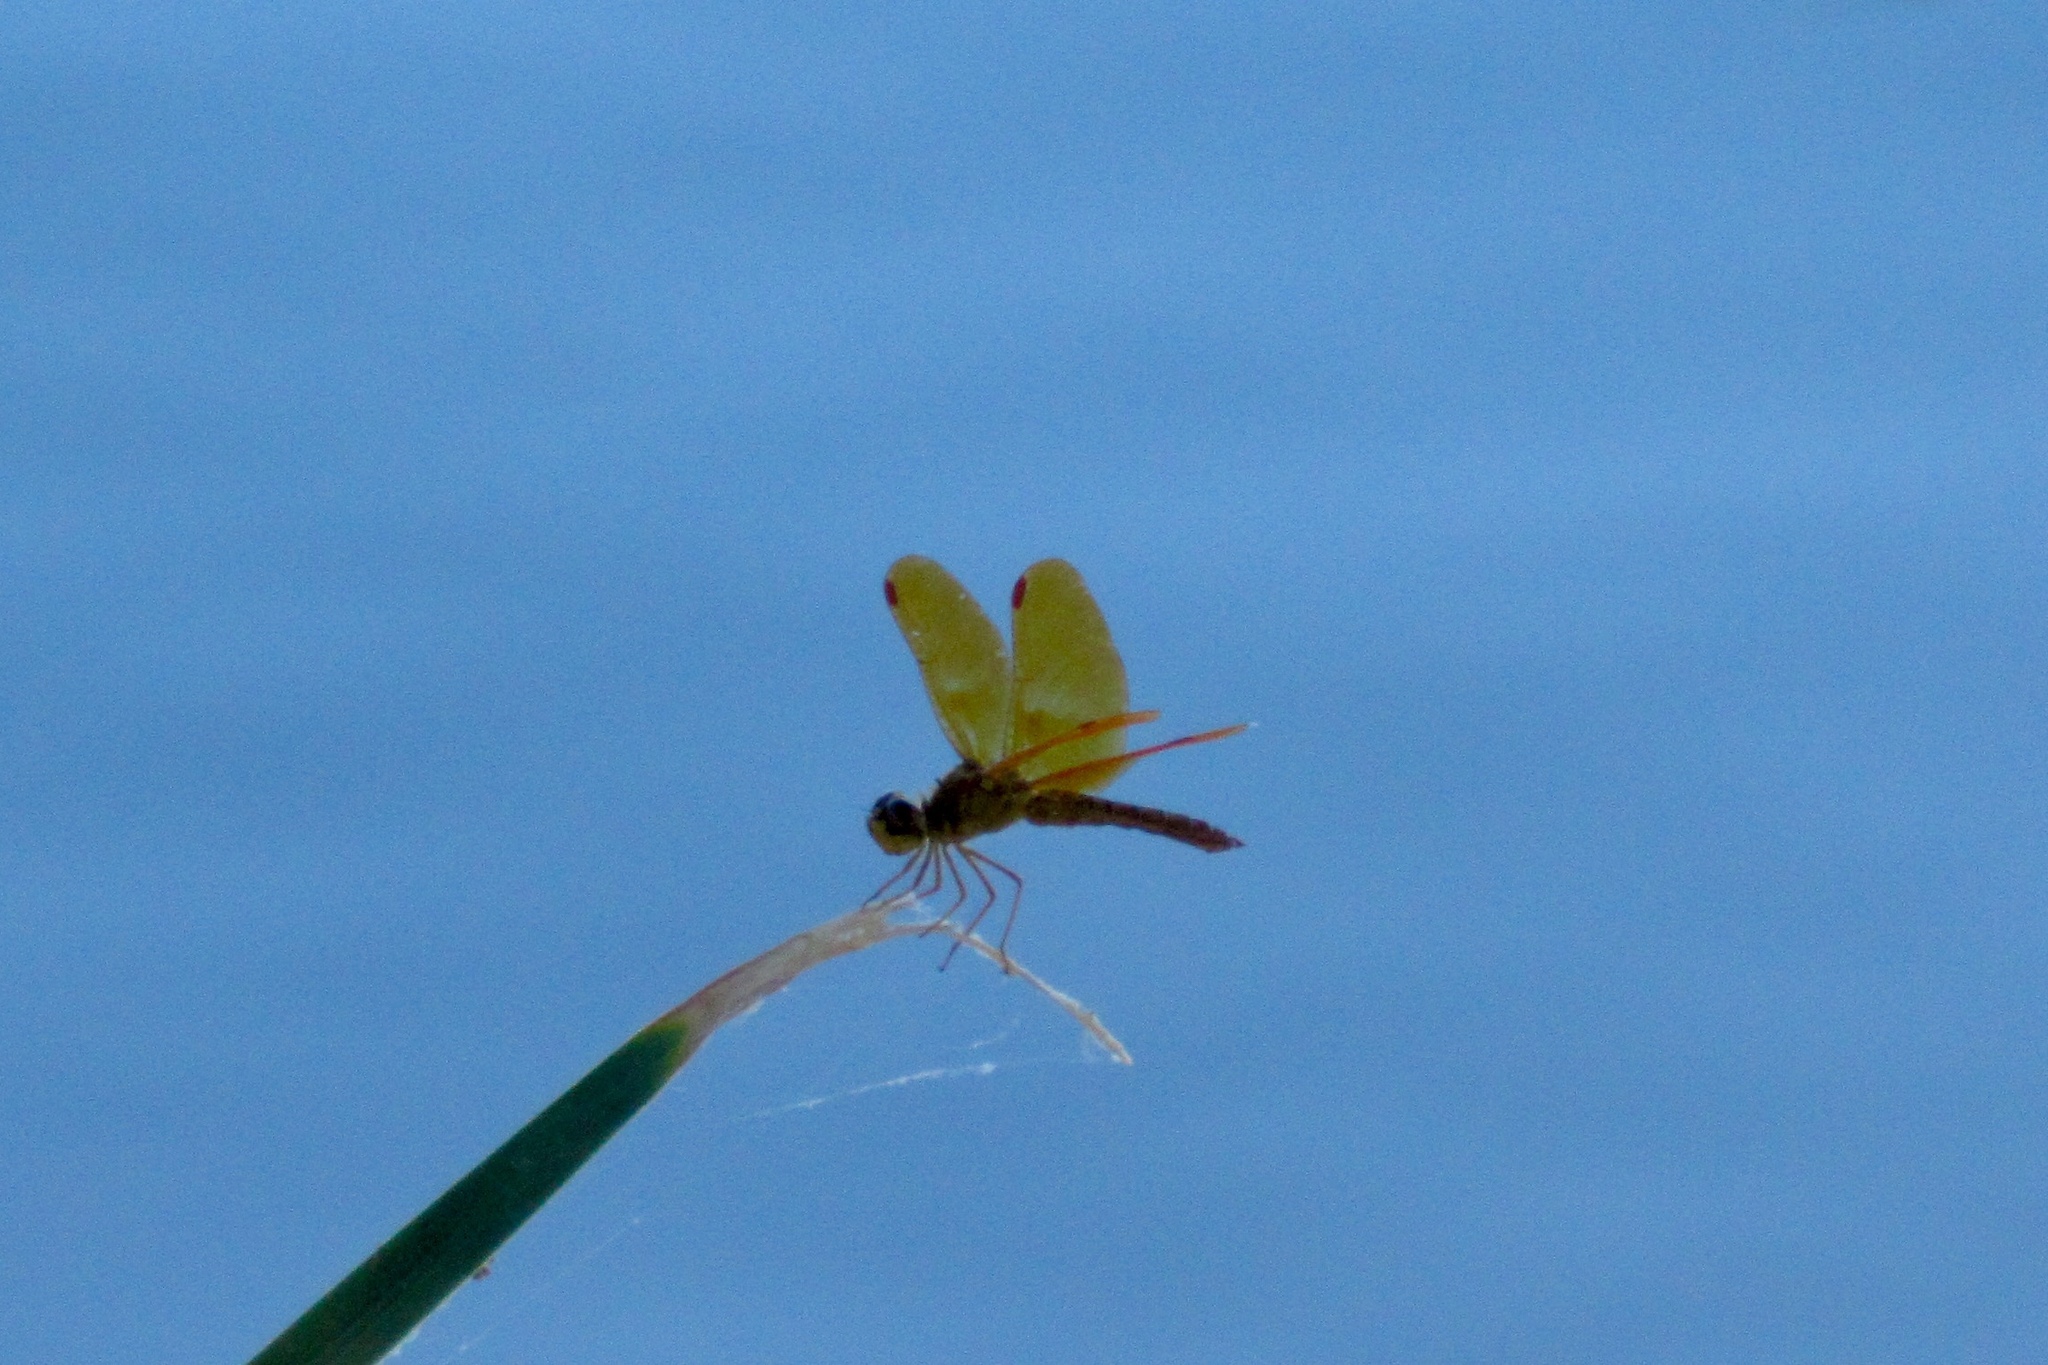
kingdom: Animalia
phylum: Arthropoda
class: Insecta
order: Odonata
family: Libellulidae
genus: Perithemis
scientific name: Perithemis intensa
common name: Mexican amberwing
